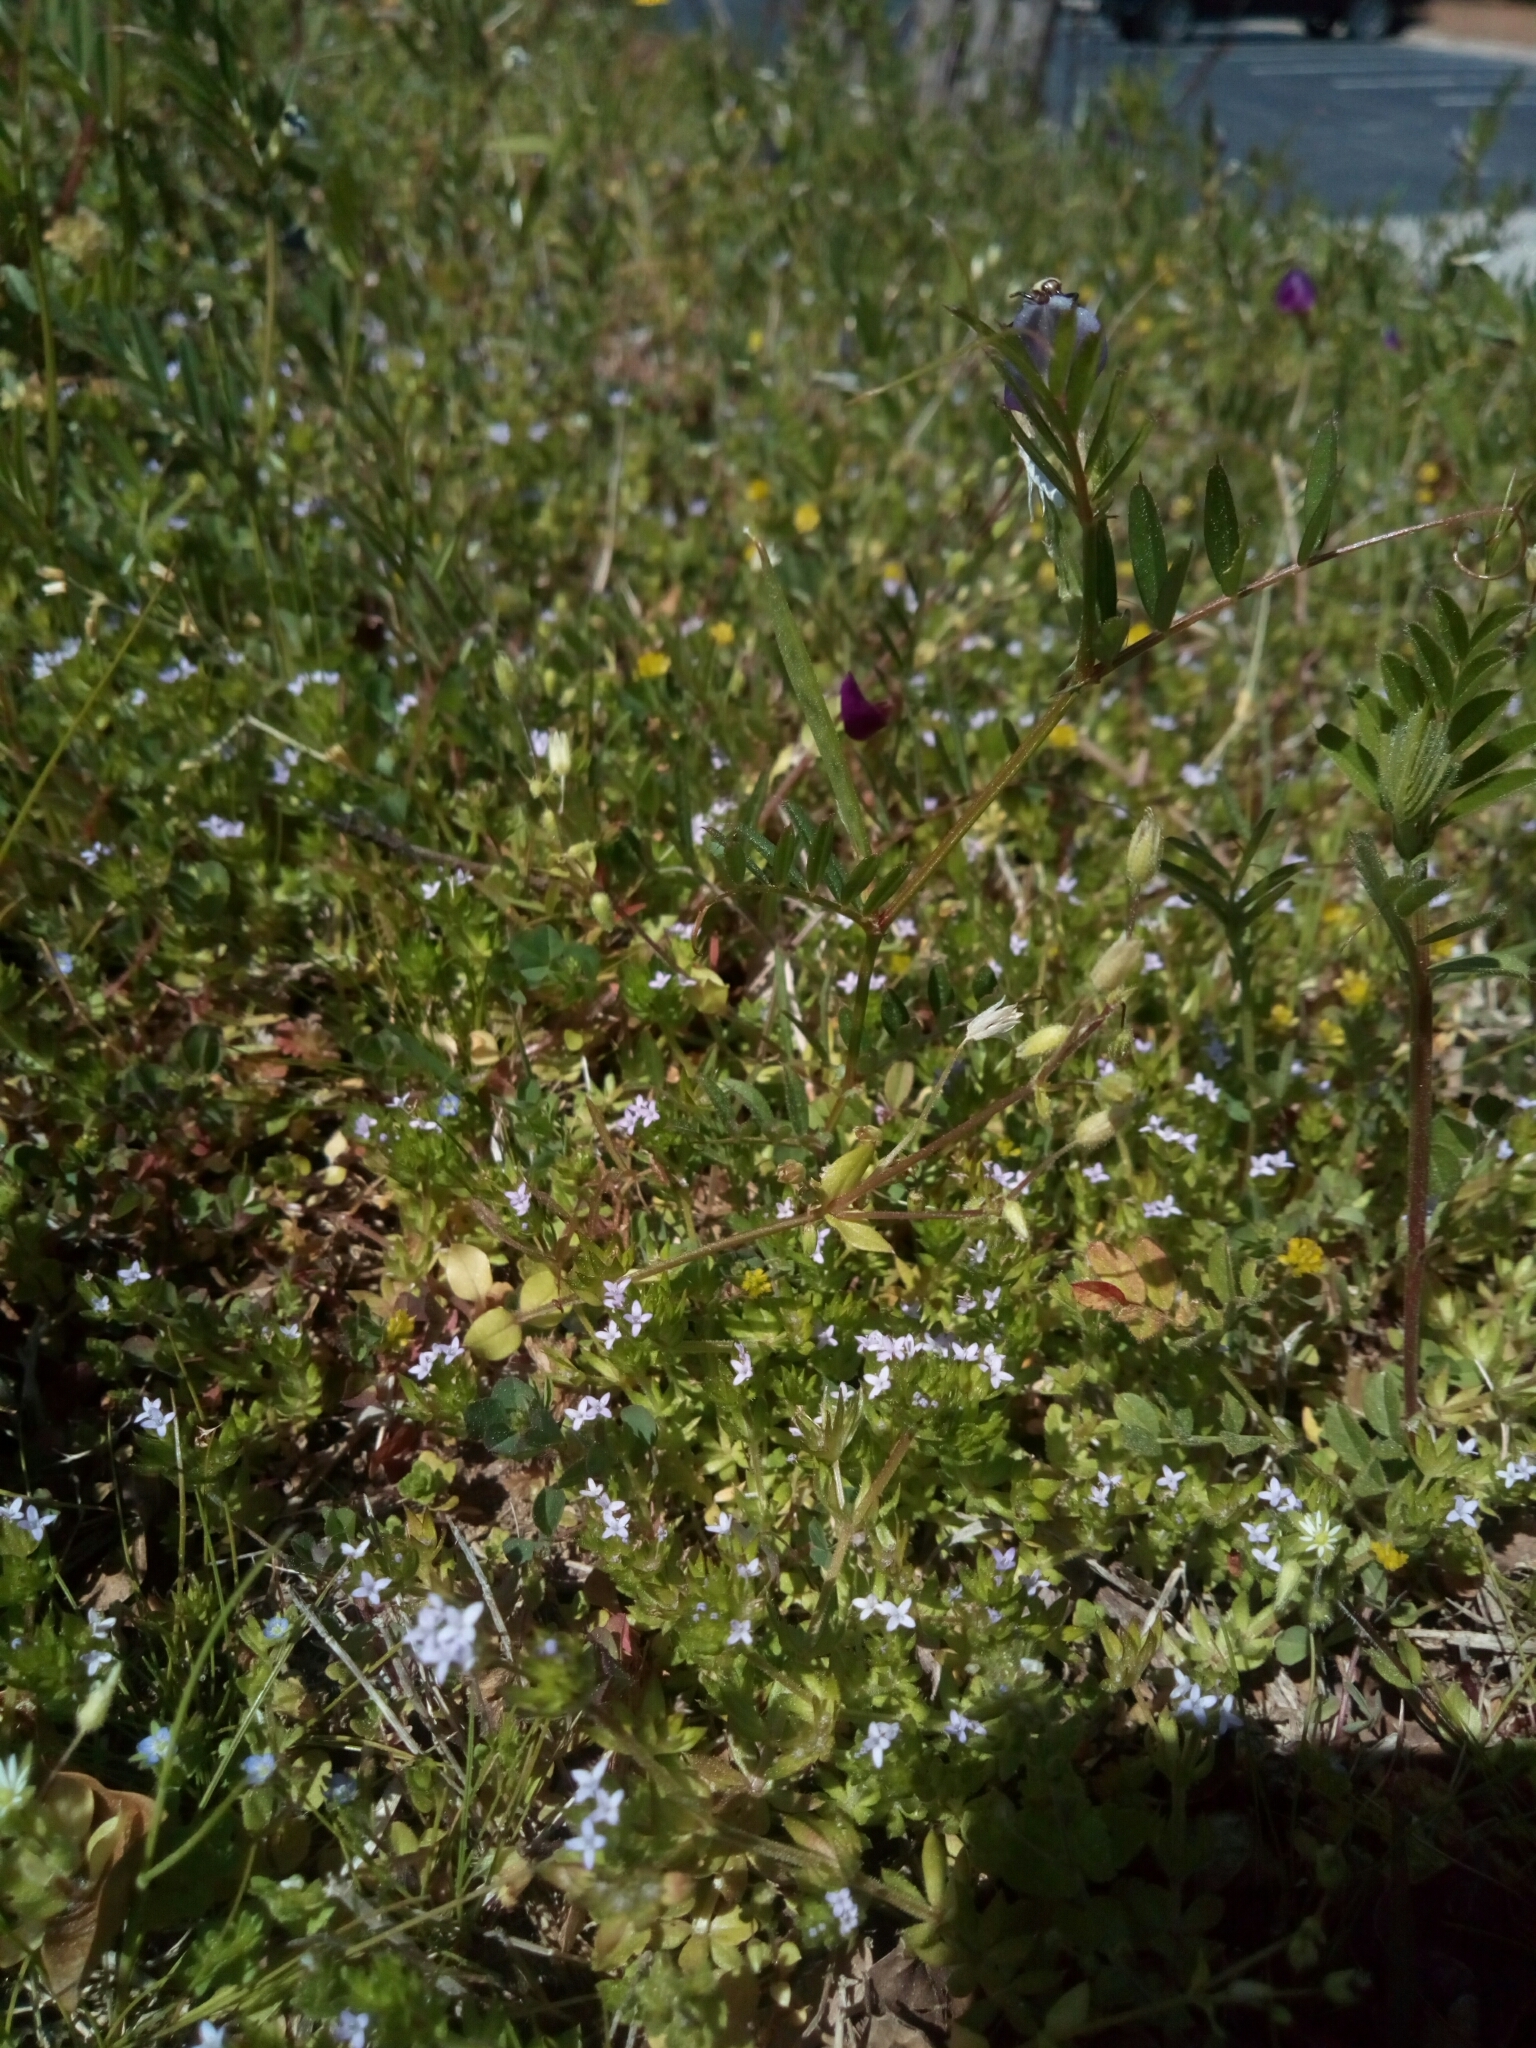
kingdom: Plantae
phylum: Tracheophyta
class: Magnoliopsida
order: Gentianales
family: Rubiaceae
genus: Sherardia
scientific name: Sherardia arvensis
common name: Field madder
